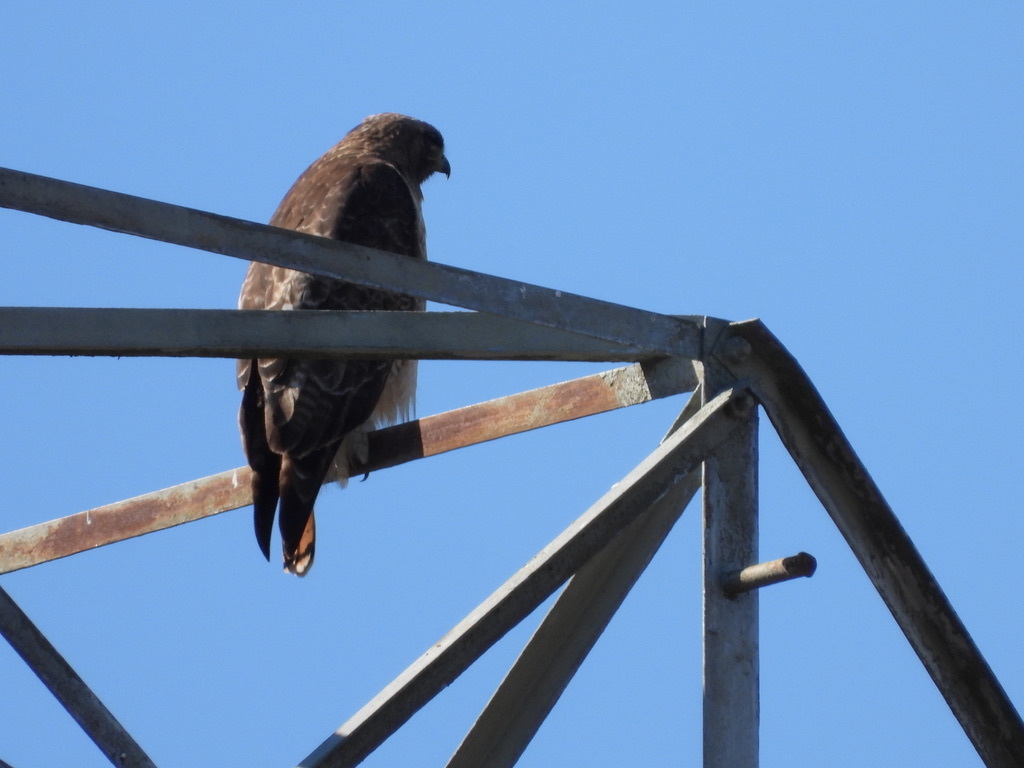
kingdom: Animalia
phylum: Chordata
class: Aves
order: Accipitriformes
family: Accipitridae
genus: Buteo
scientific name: Buteo jamaicensis
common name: Red-tailed hawk
